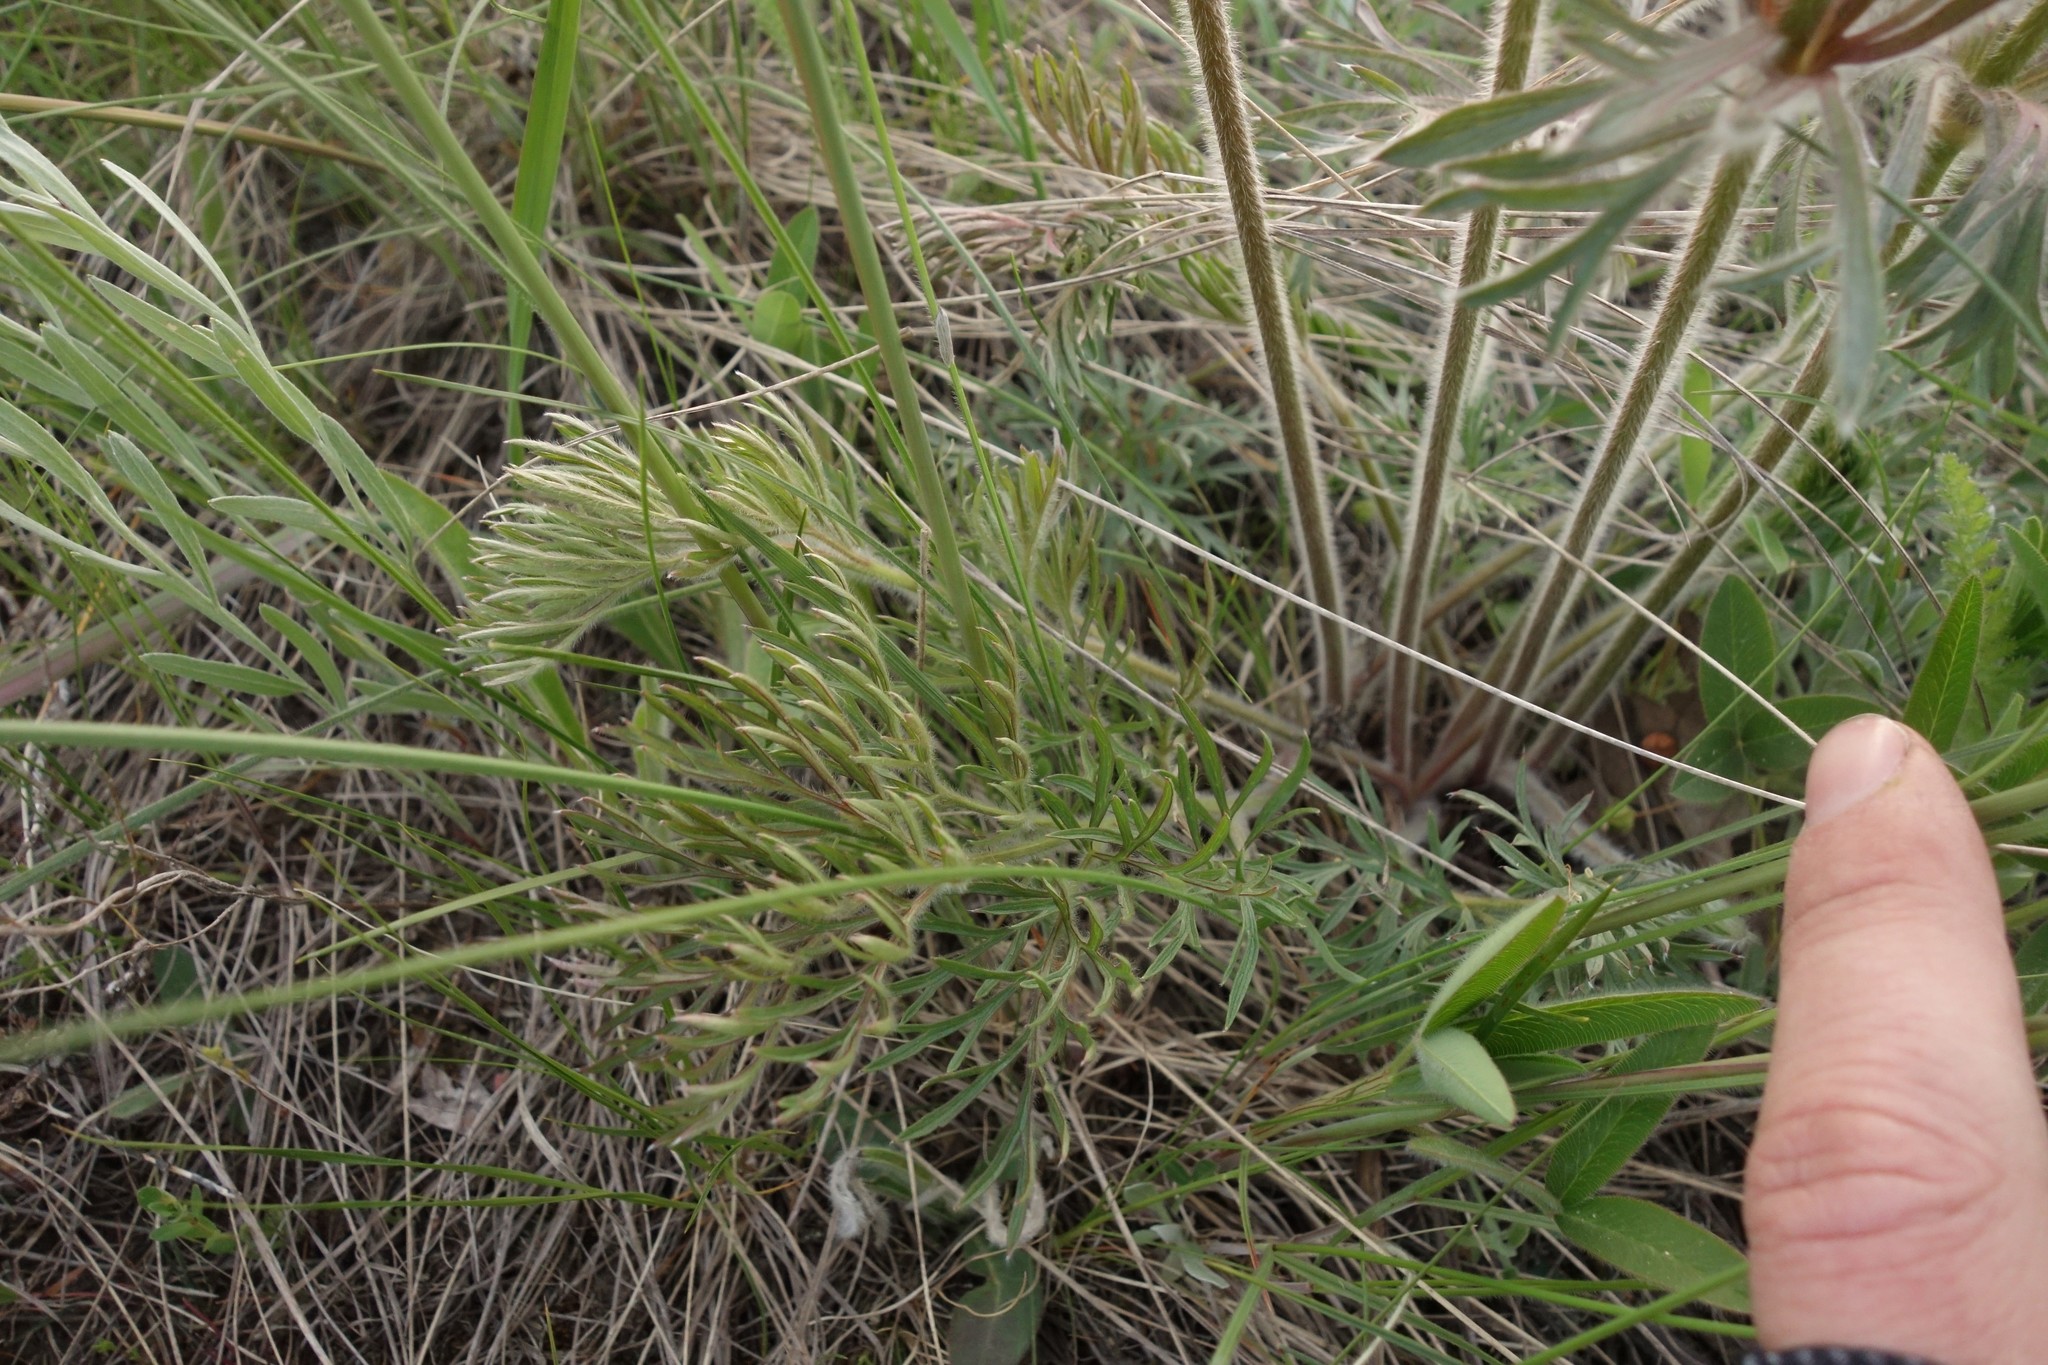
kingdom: Plantae
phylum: Tracheophyta
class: Magnoliopsida
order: Ranunculales
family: Ranunculaceae
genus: Pulsatilla
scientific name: Pulsatilla pratensis
